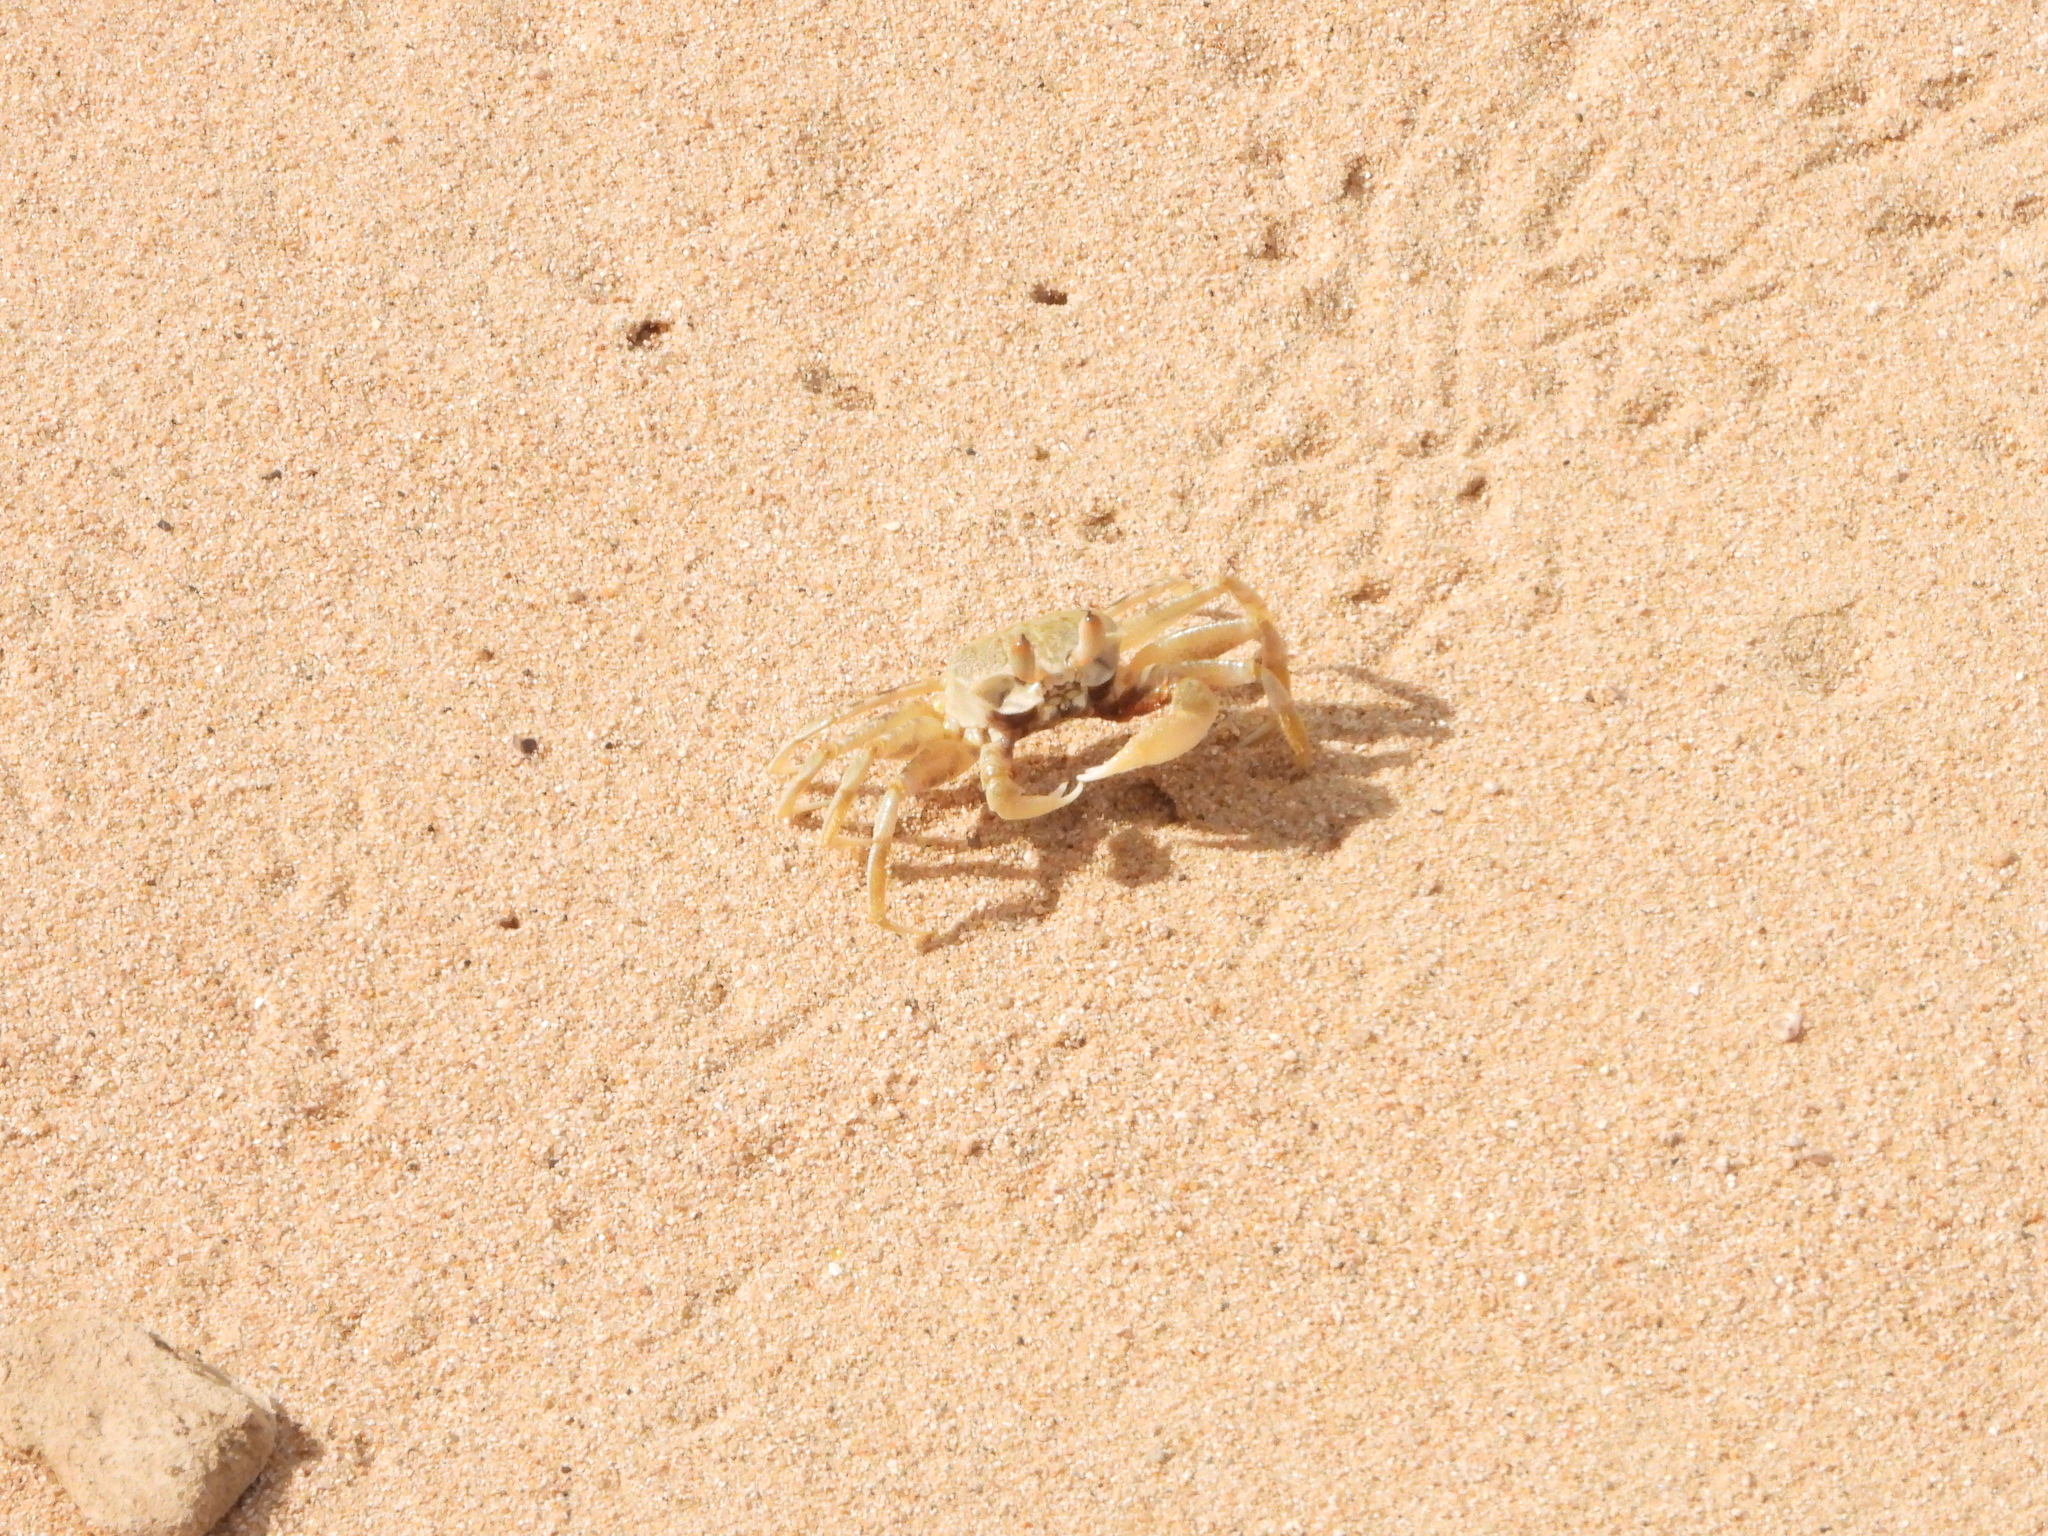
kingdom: Animalia
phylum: Arthropoda
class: Malacostraca
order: Decapoda
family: Ocypodidae
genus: Ocypode
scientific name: Ocypode ceratophthalmus
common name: Indo-pacific ghost crab
